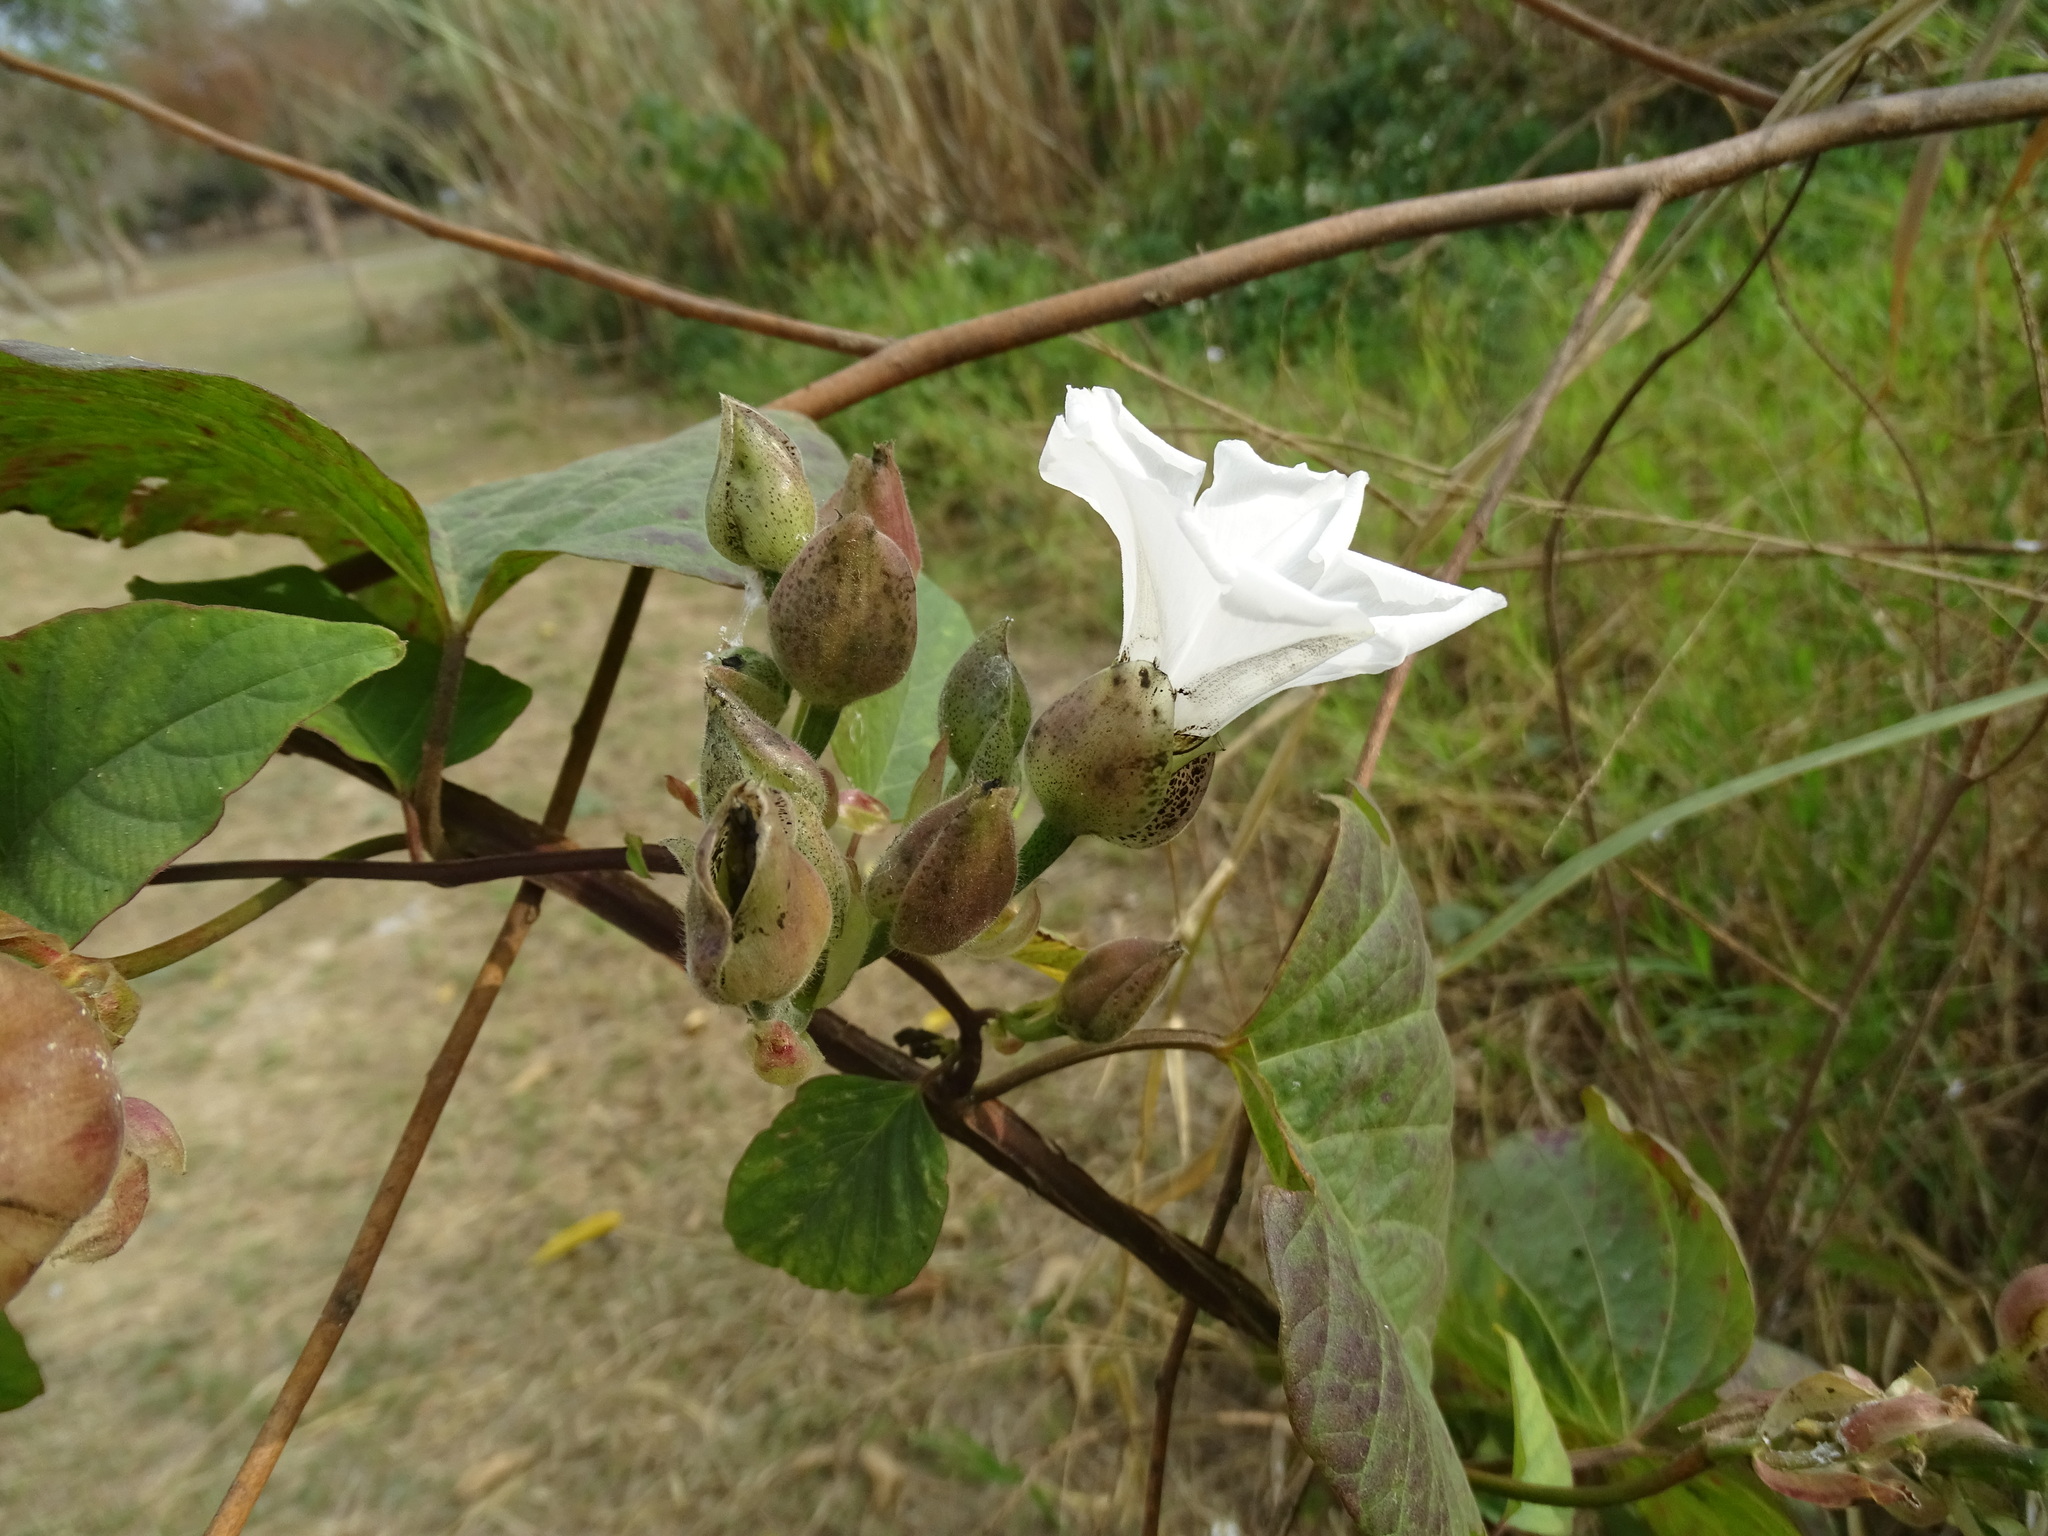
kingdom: Plantae
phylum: Tracheophyta
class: Magnoliopsida
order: Solanales
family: Convolvulaceae
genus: Operculina
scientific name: Operculina turpethum
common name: Transparent wood-rose
